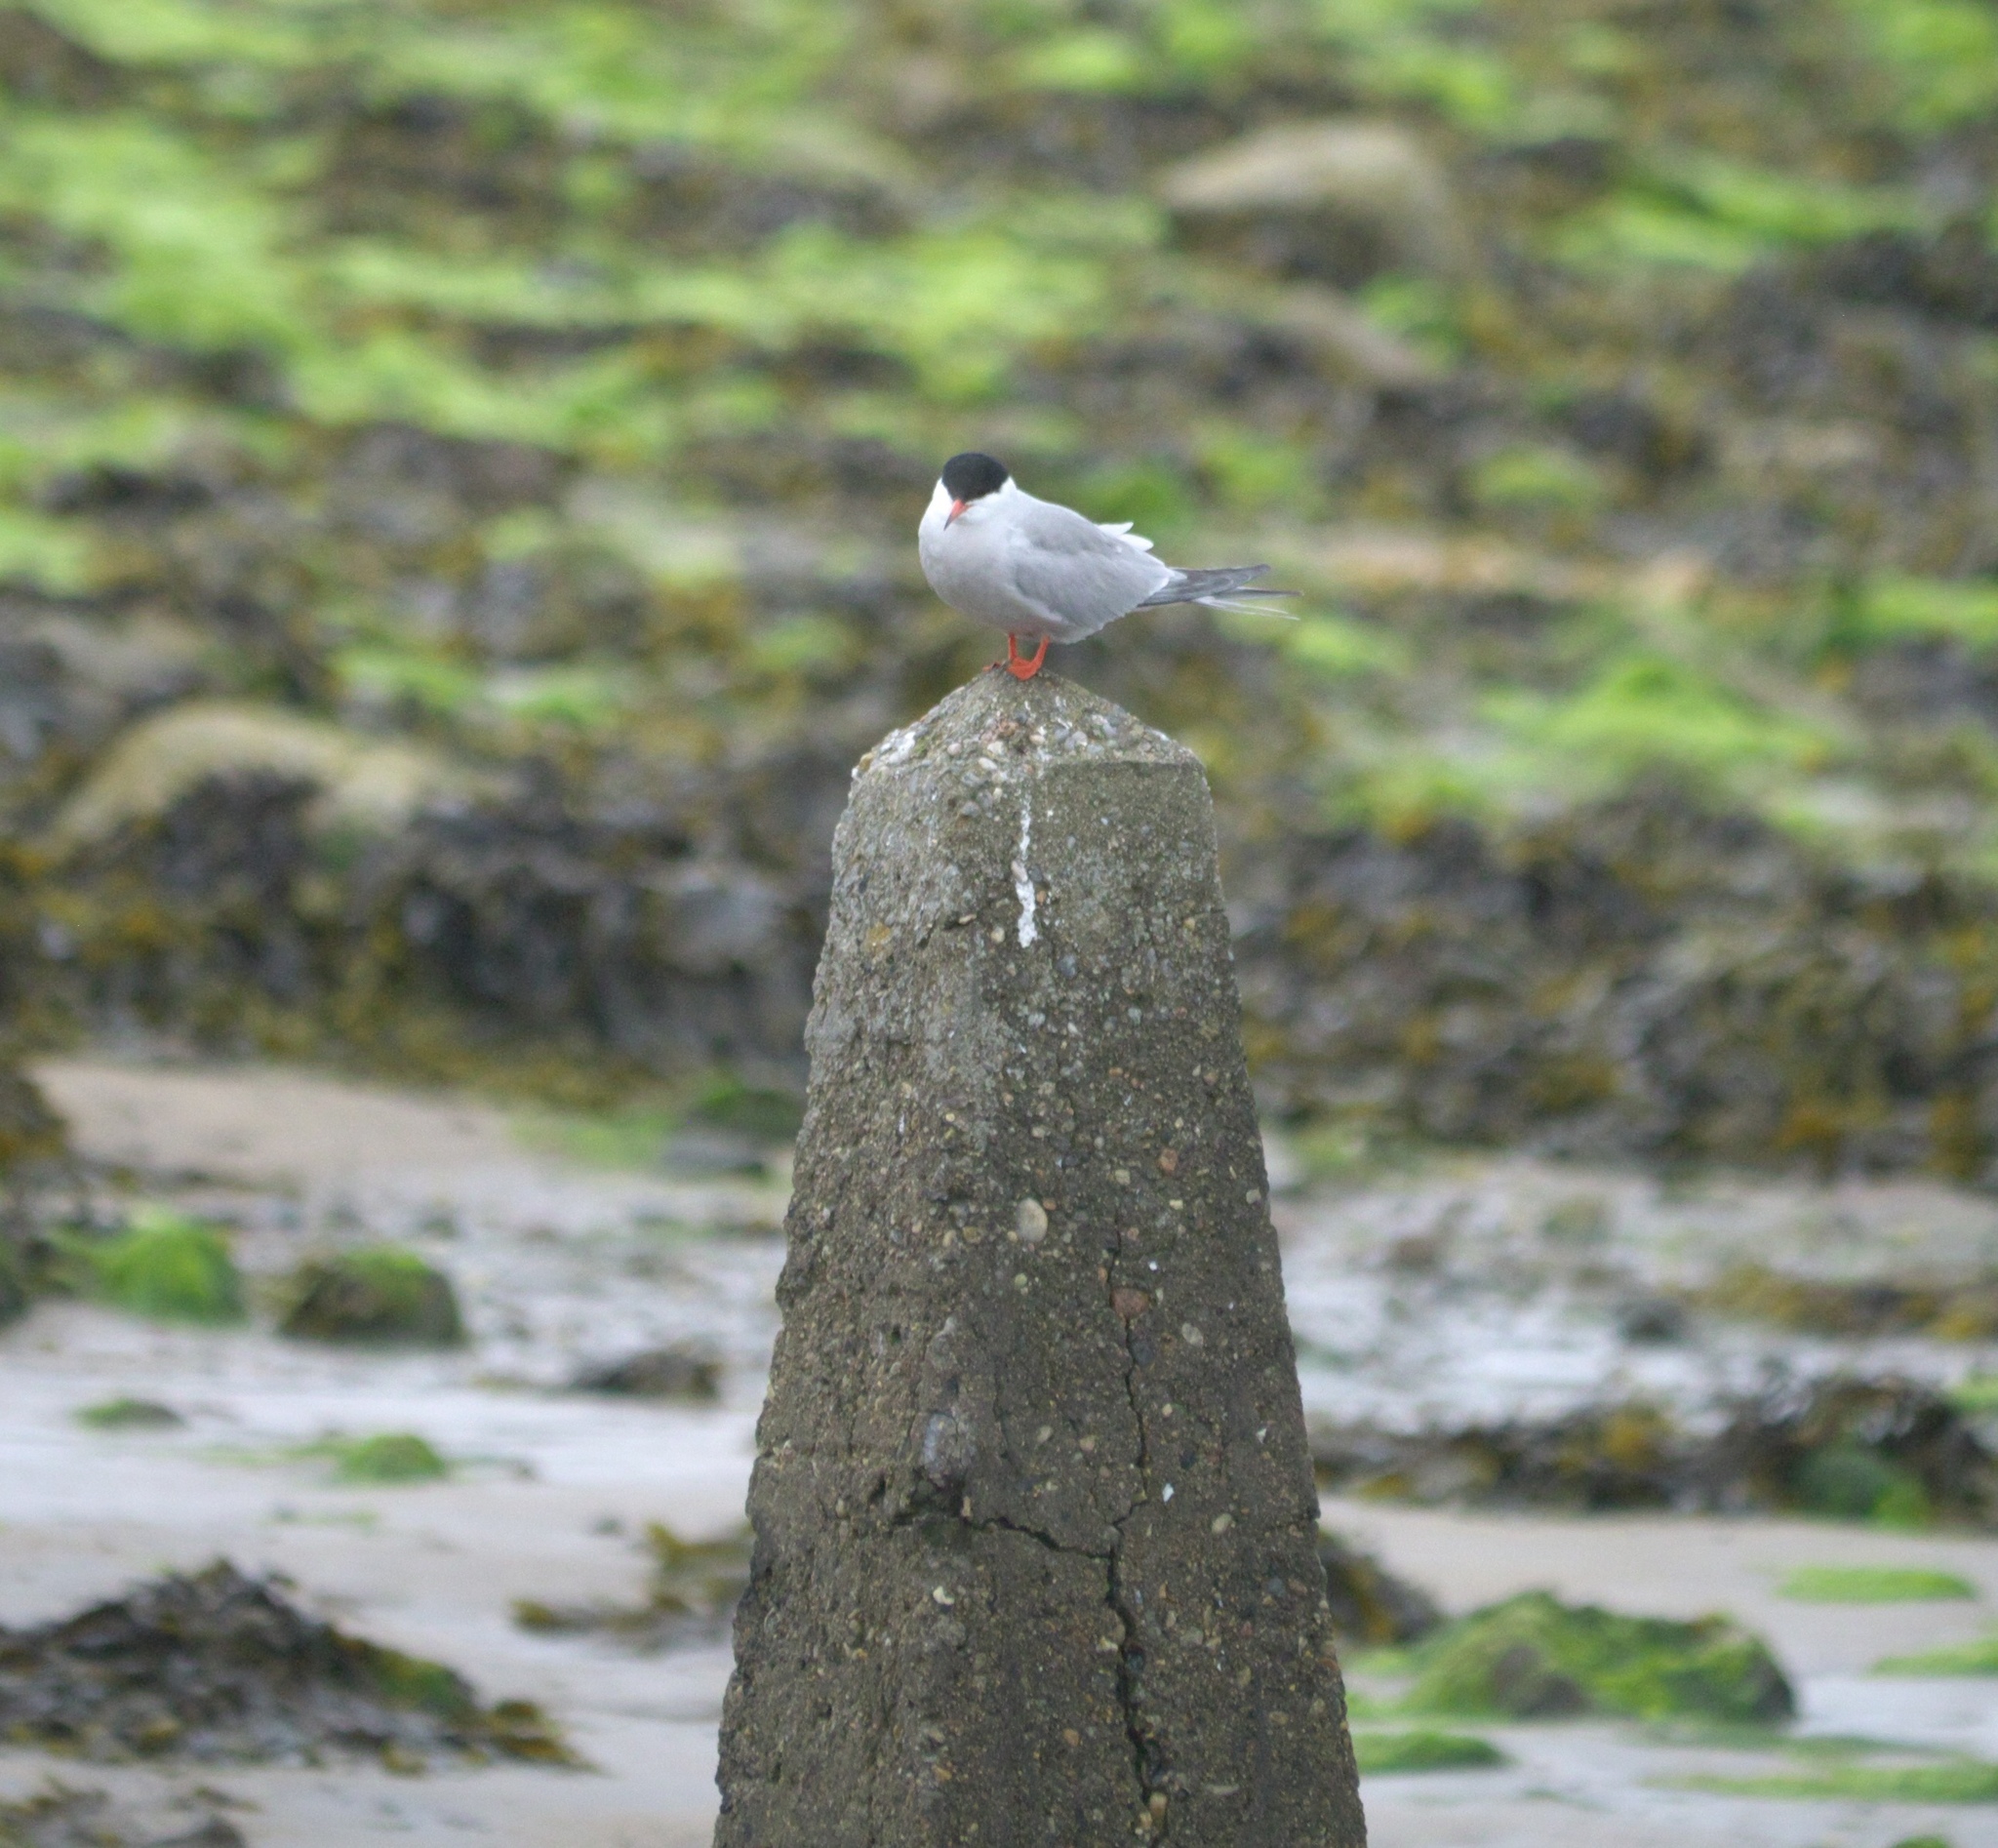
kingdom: Animalia
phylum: Chordata
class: Aves
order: Charadriiformes
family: Laridae
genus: Sterna
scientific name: Sterna hirundo
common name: Common tern
